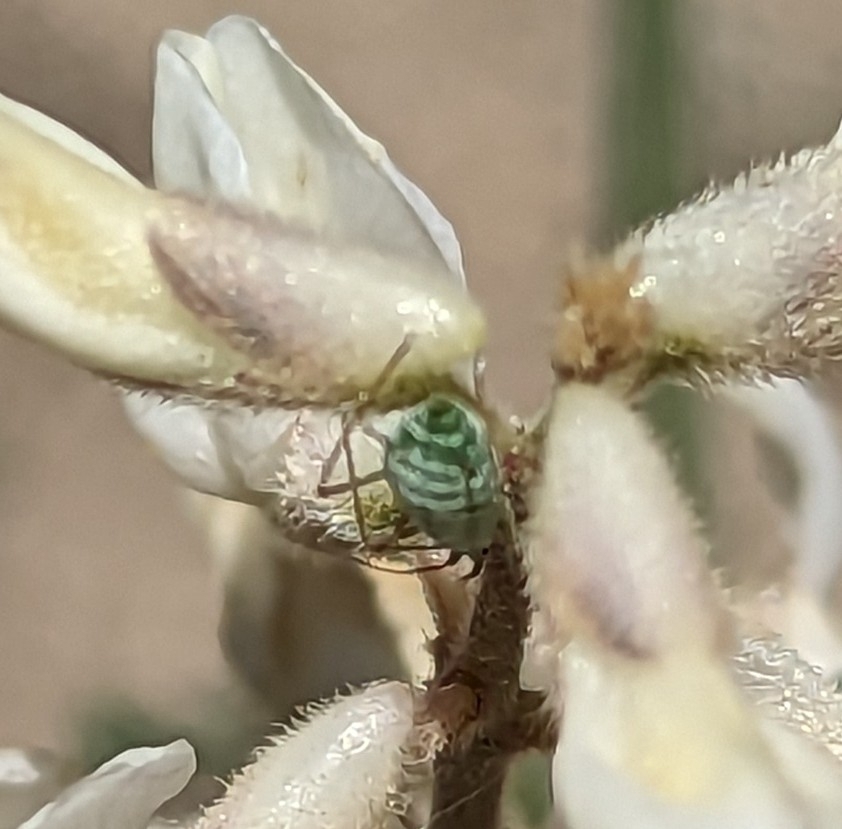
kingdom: Animalia
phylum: Arthropoda
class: Insecta
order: Hemiptera
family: Aphididae
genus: Macrosiphum
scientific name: Macrosiphum albifrons
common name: Lupine aphid
